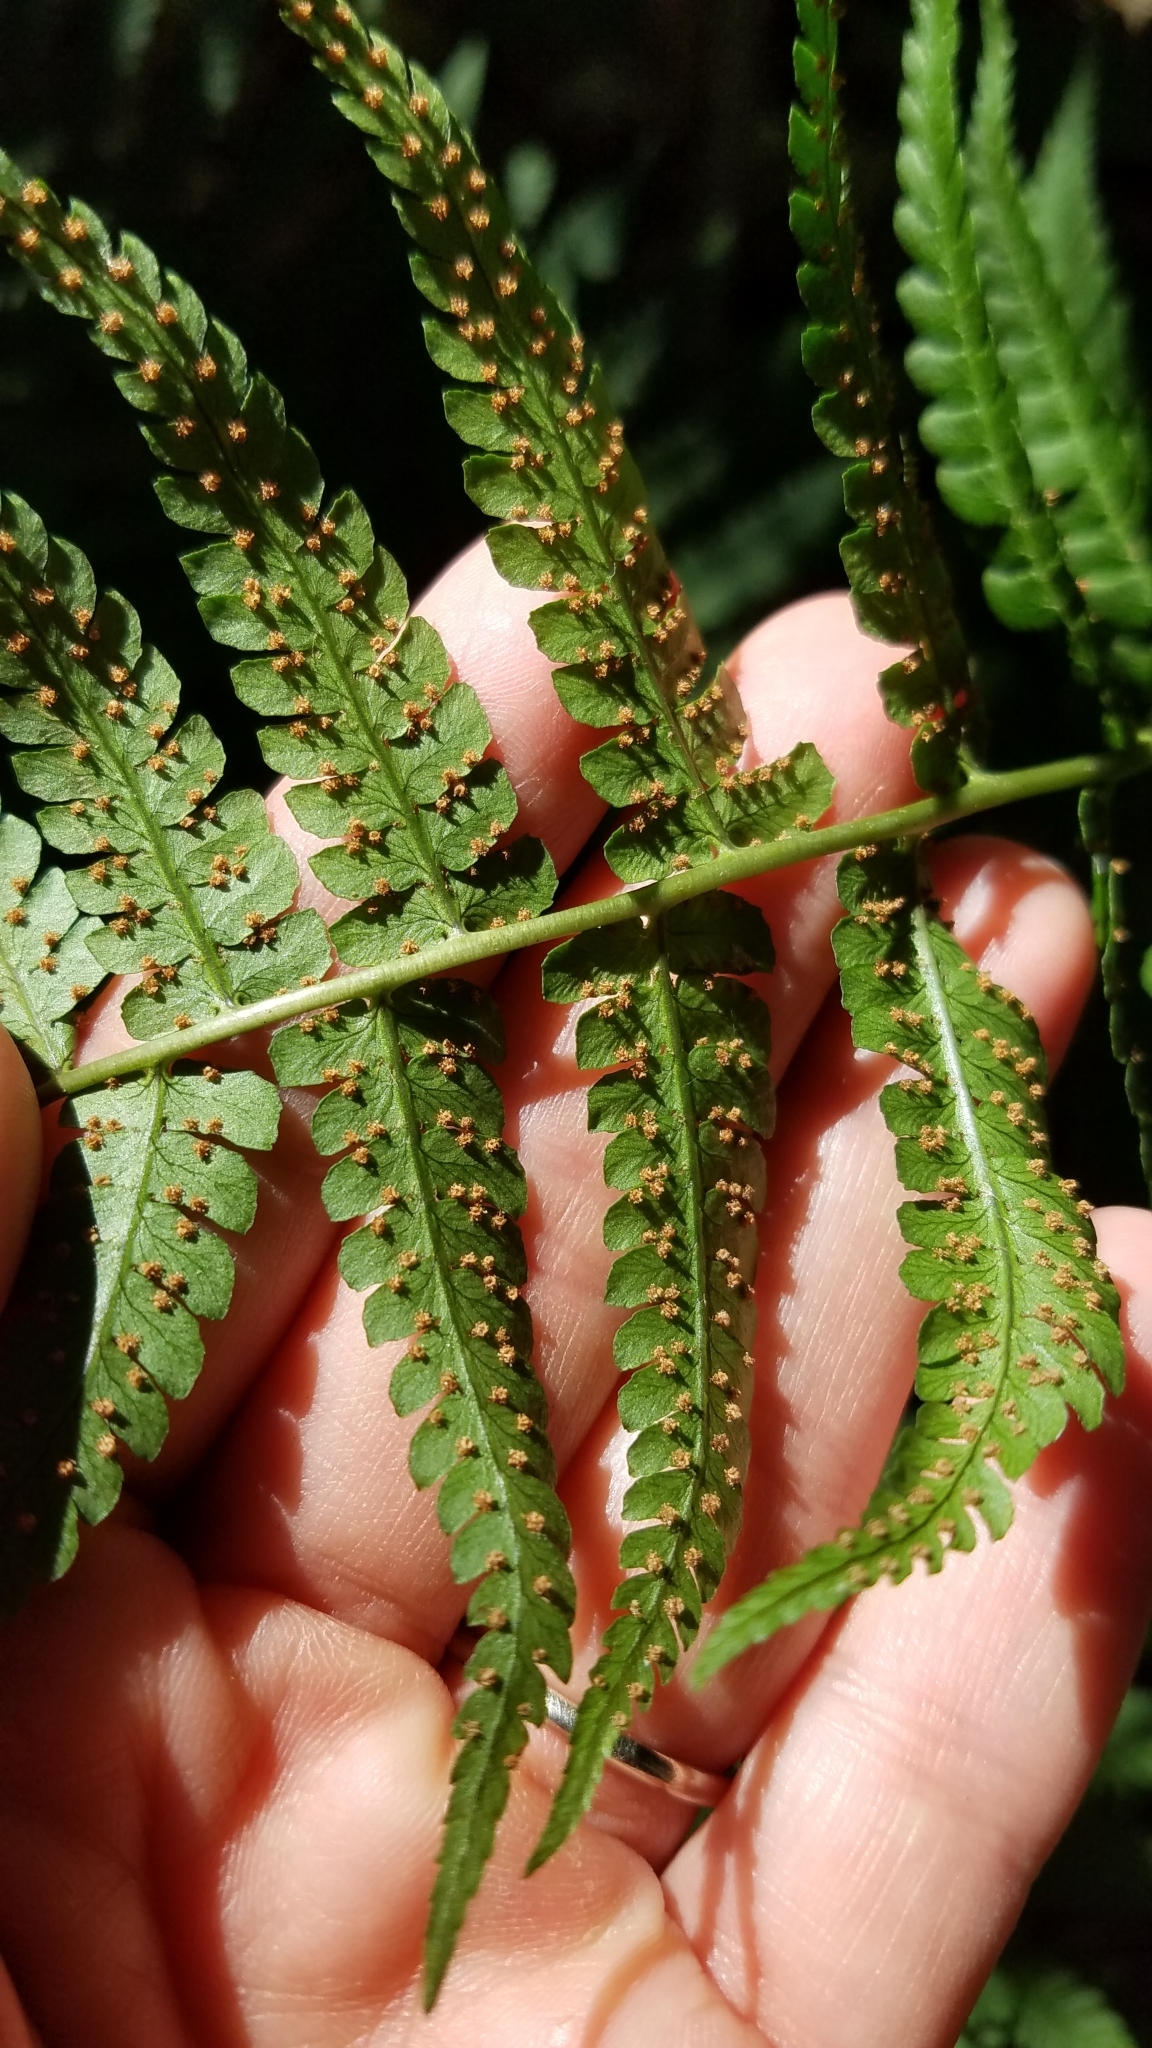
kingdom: Plantae
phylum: Tracheophyta
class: Polypodiopsida
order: Polypodiales
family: Dryopteridaceae
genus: Dryopteris
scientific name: Dryopteris marginalis
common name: Marginal wood fern
